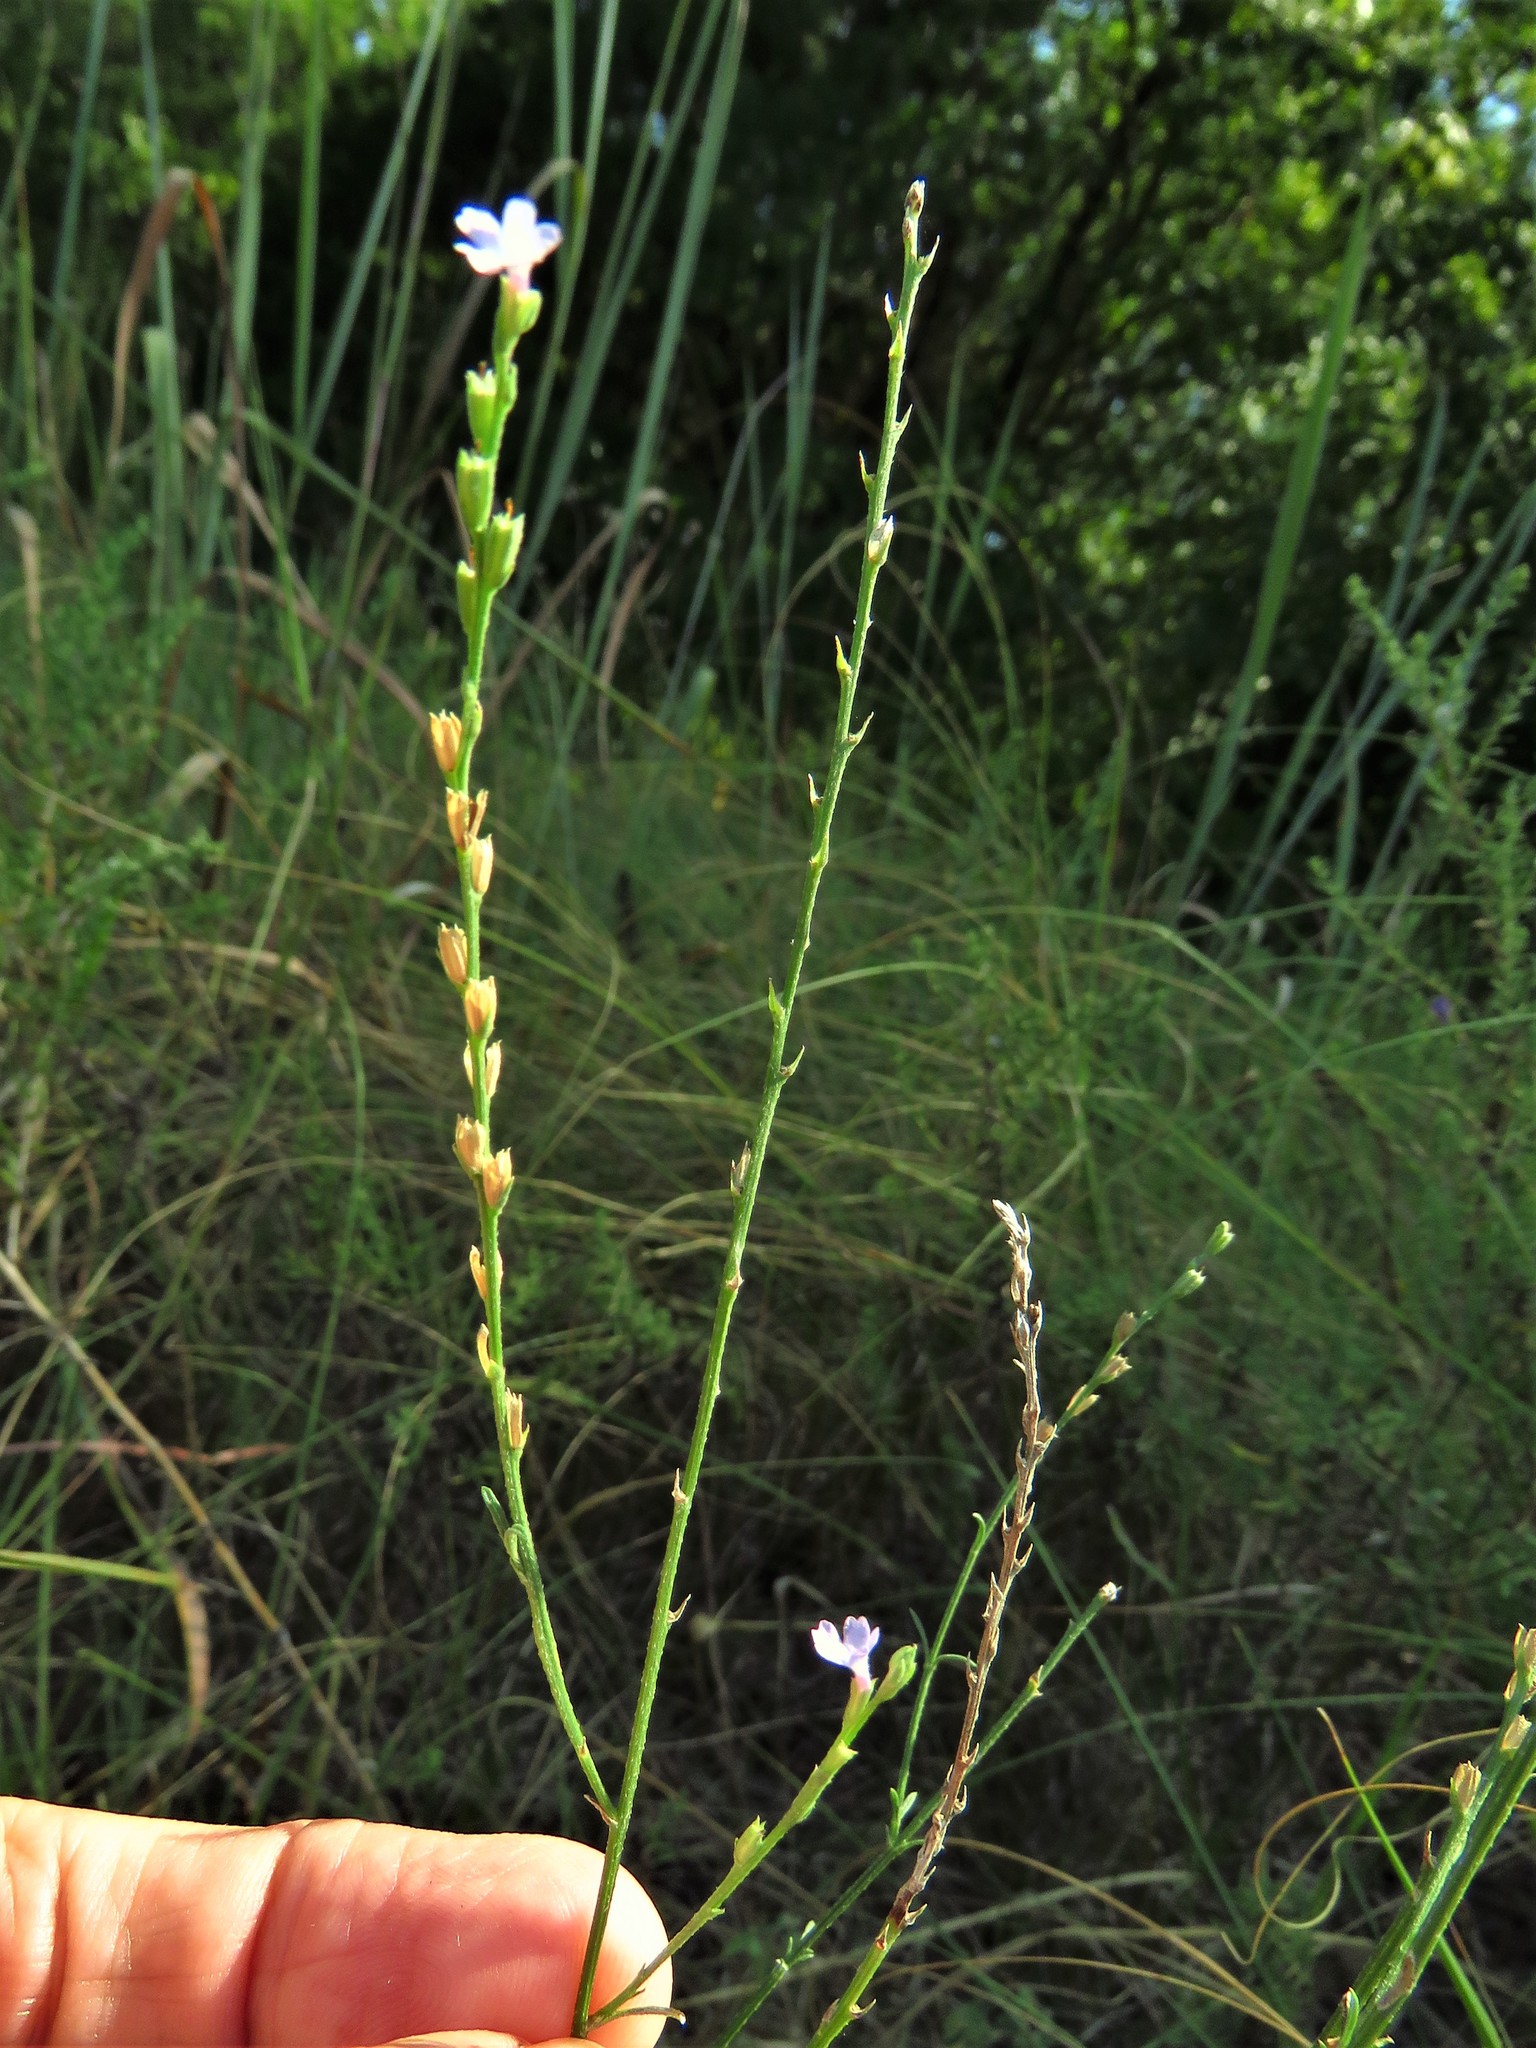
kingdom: Plantae
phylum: Tracheophyta
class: Magnoliopsida
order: Lamiales
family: Verbenaceae
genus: Verbena
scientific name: Verbena halei
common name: Texas vervain
